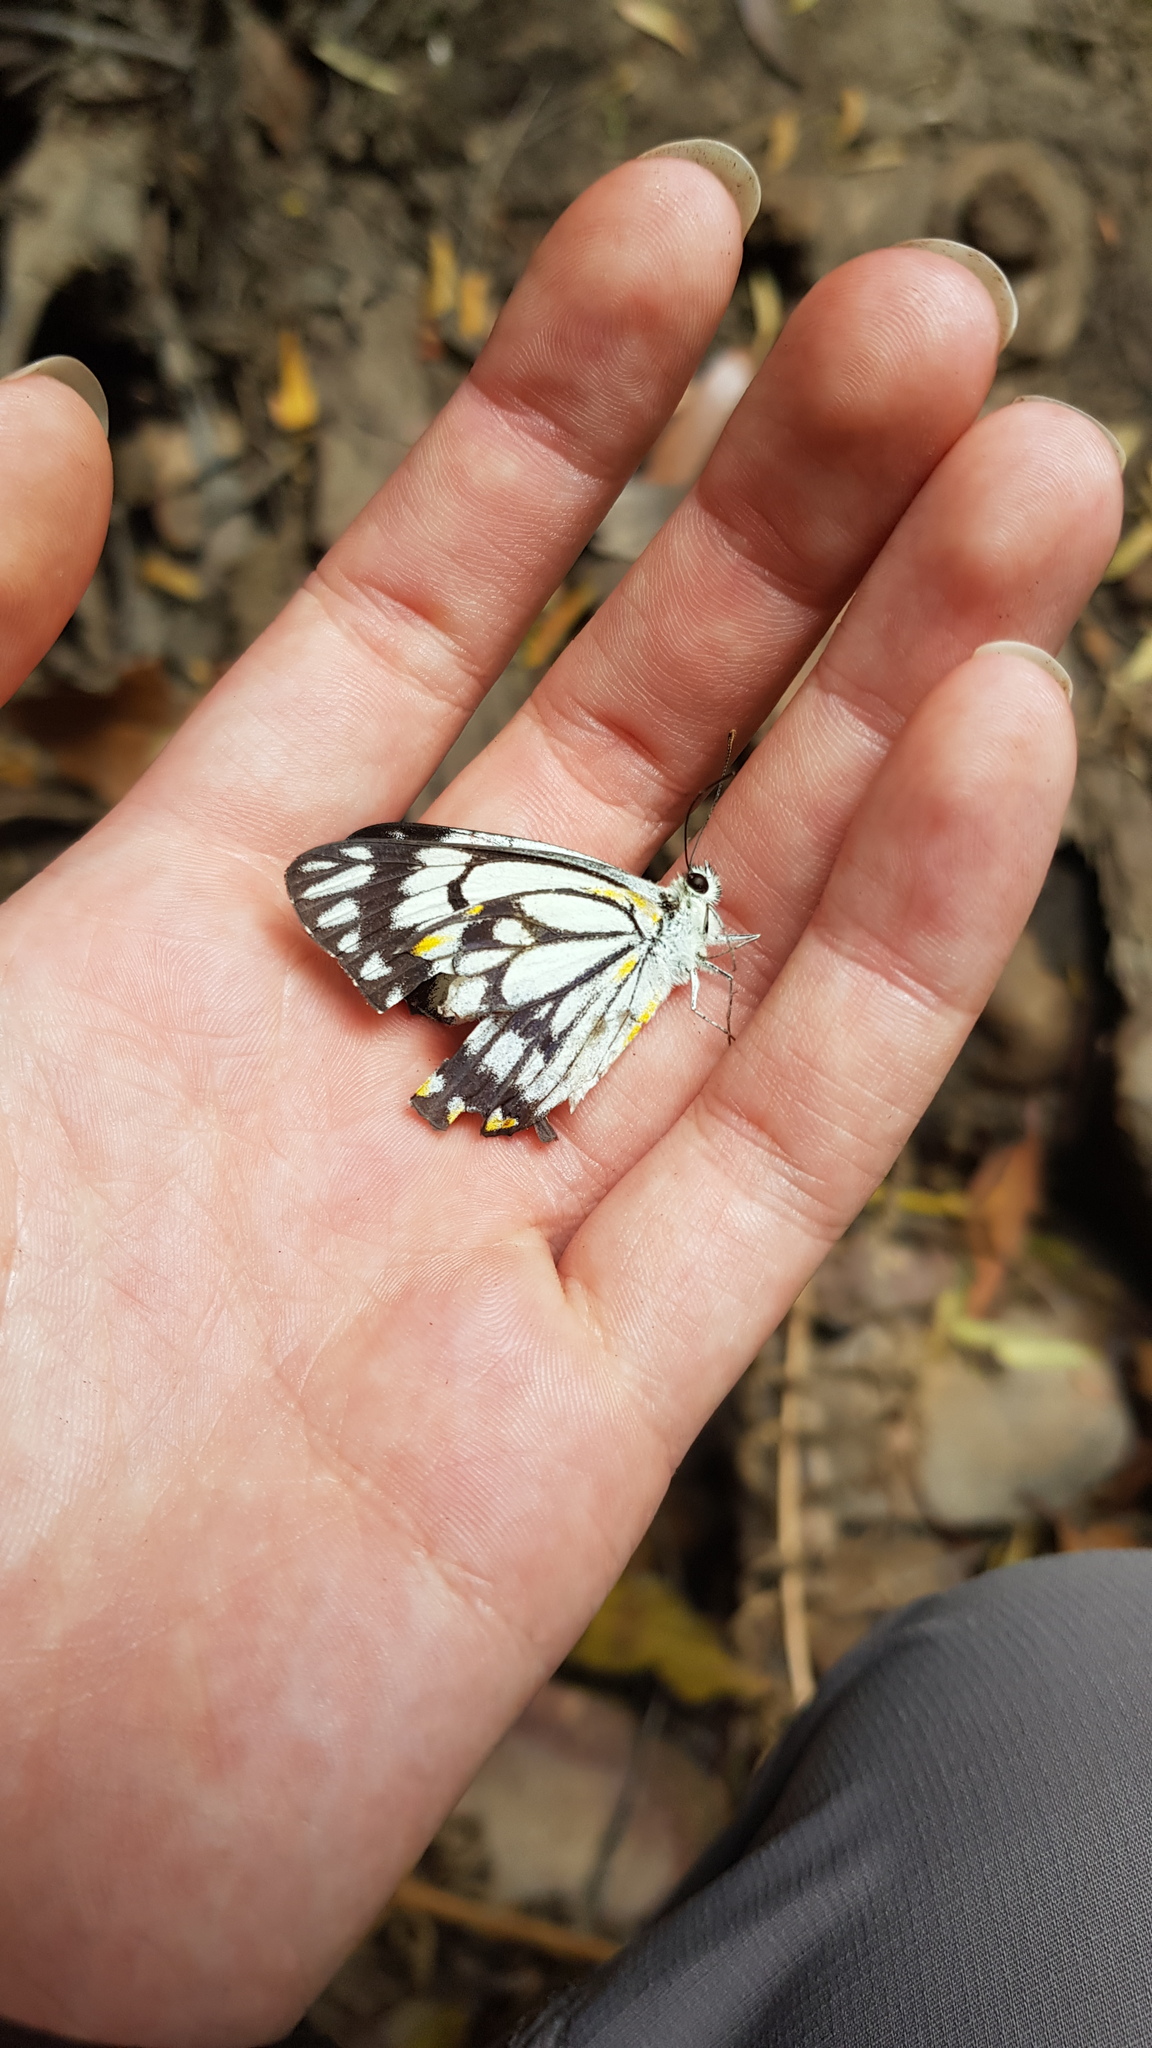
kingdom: Animalia
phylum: Arthropoda
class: Insecta
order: Lepidoptera
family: Pieridae
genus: Belenois
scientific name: Belenois java
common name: Caper white
